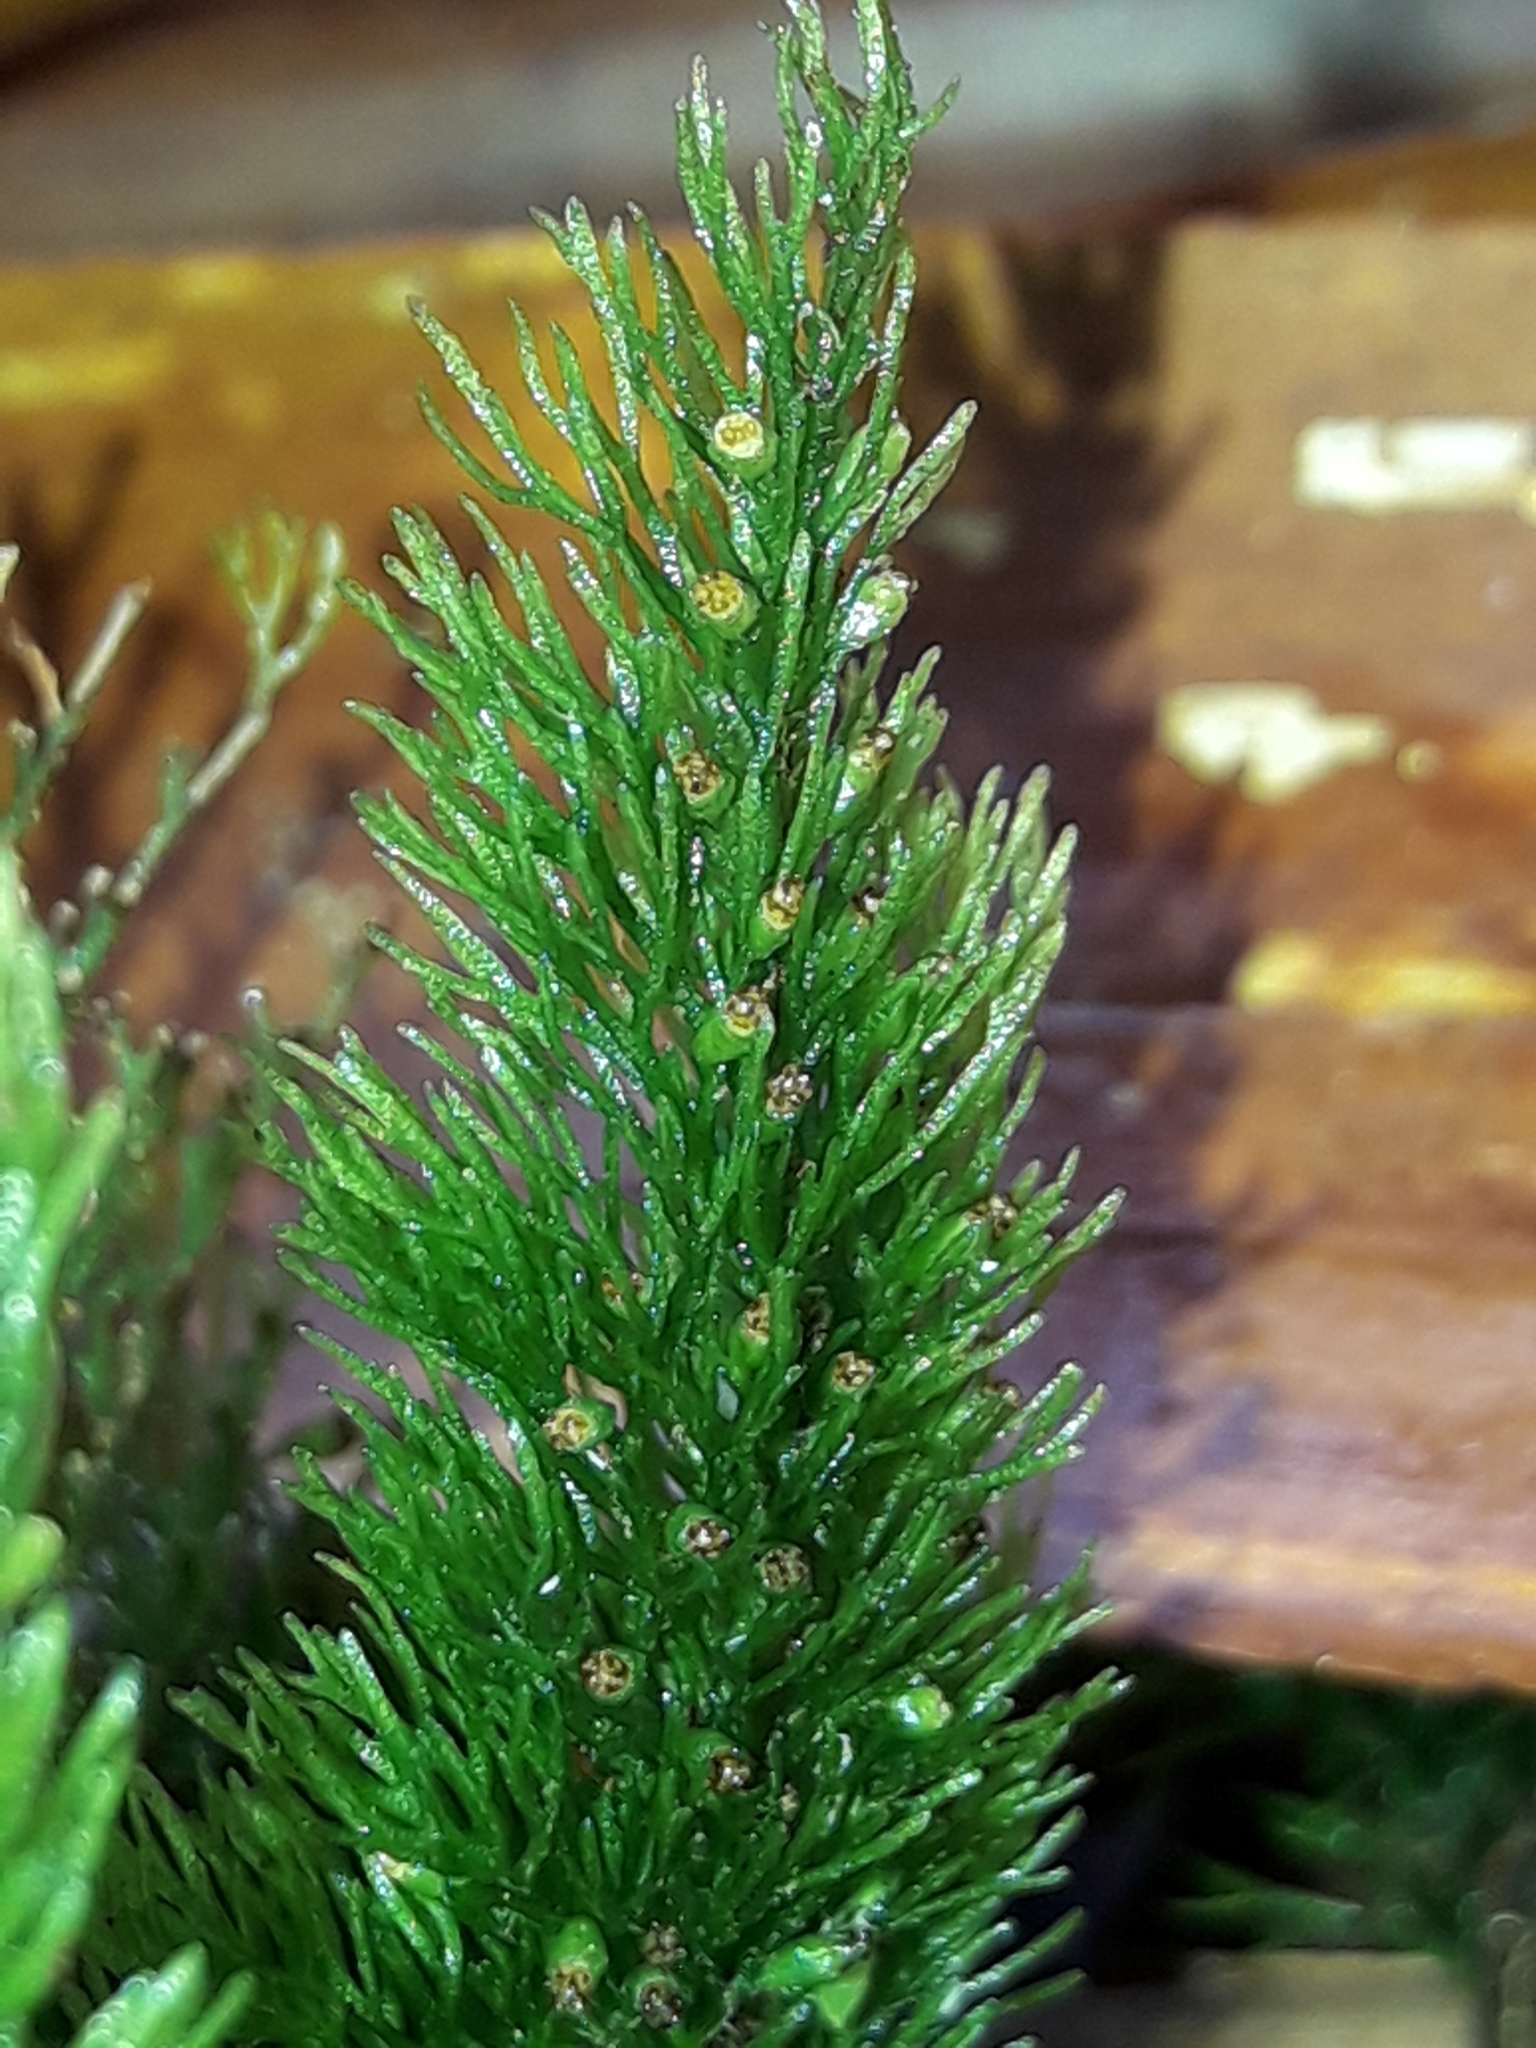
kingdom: Plantae
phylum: Tracheophyta
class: Polypodiopsida
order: Hymenophyllales
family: Hymenophyllaceae
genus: Abrodictyum
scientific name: Abrodictyum laetum
